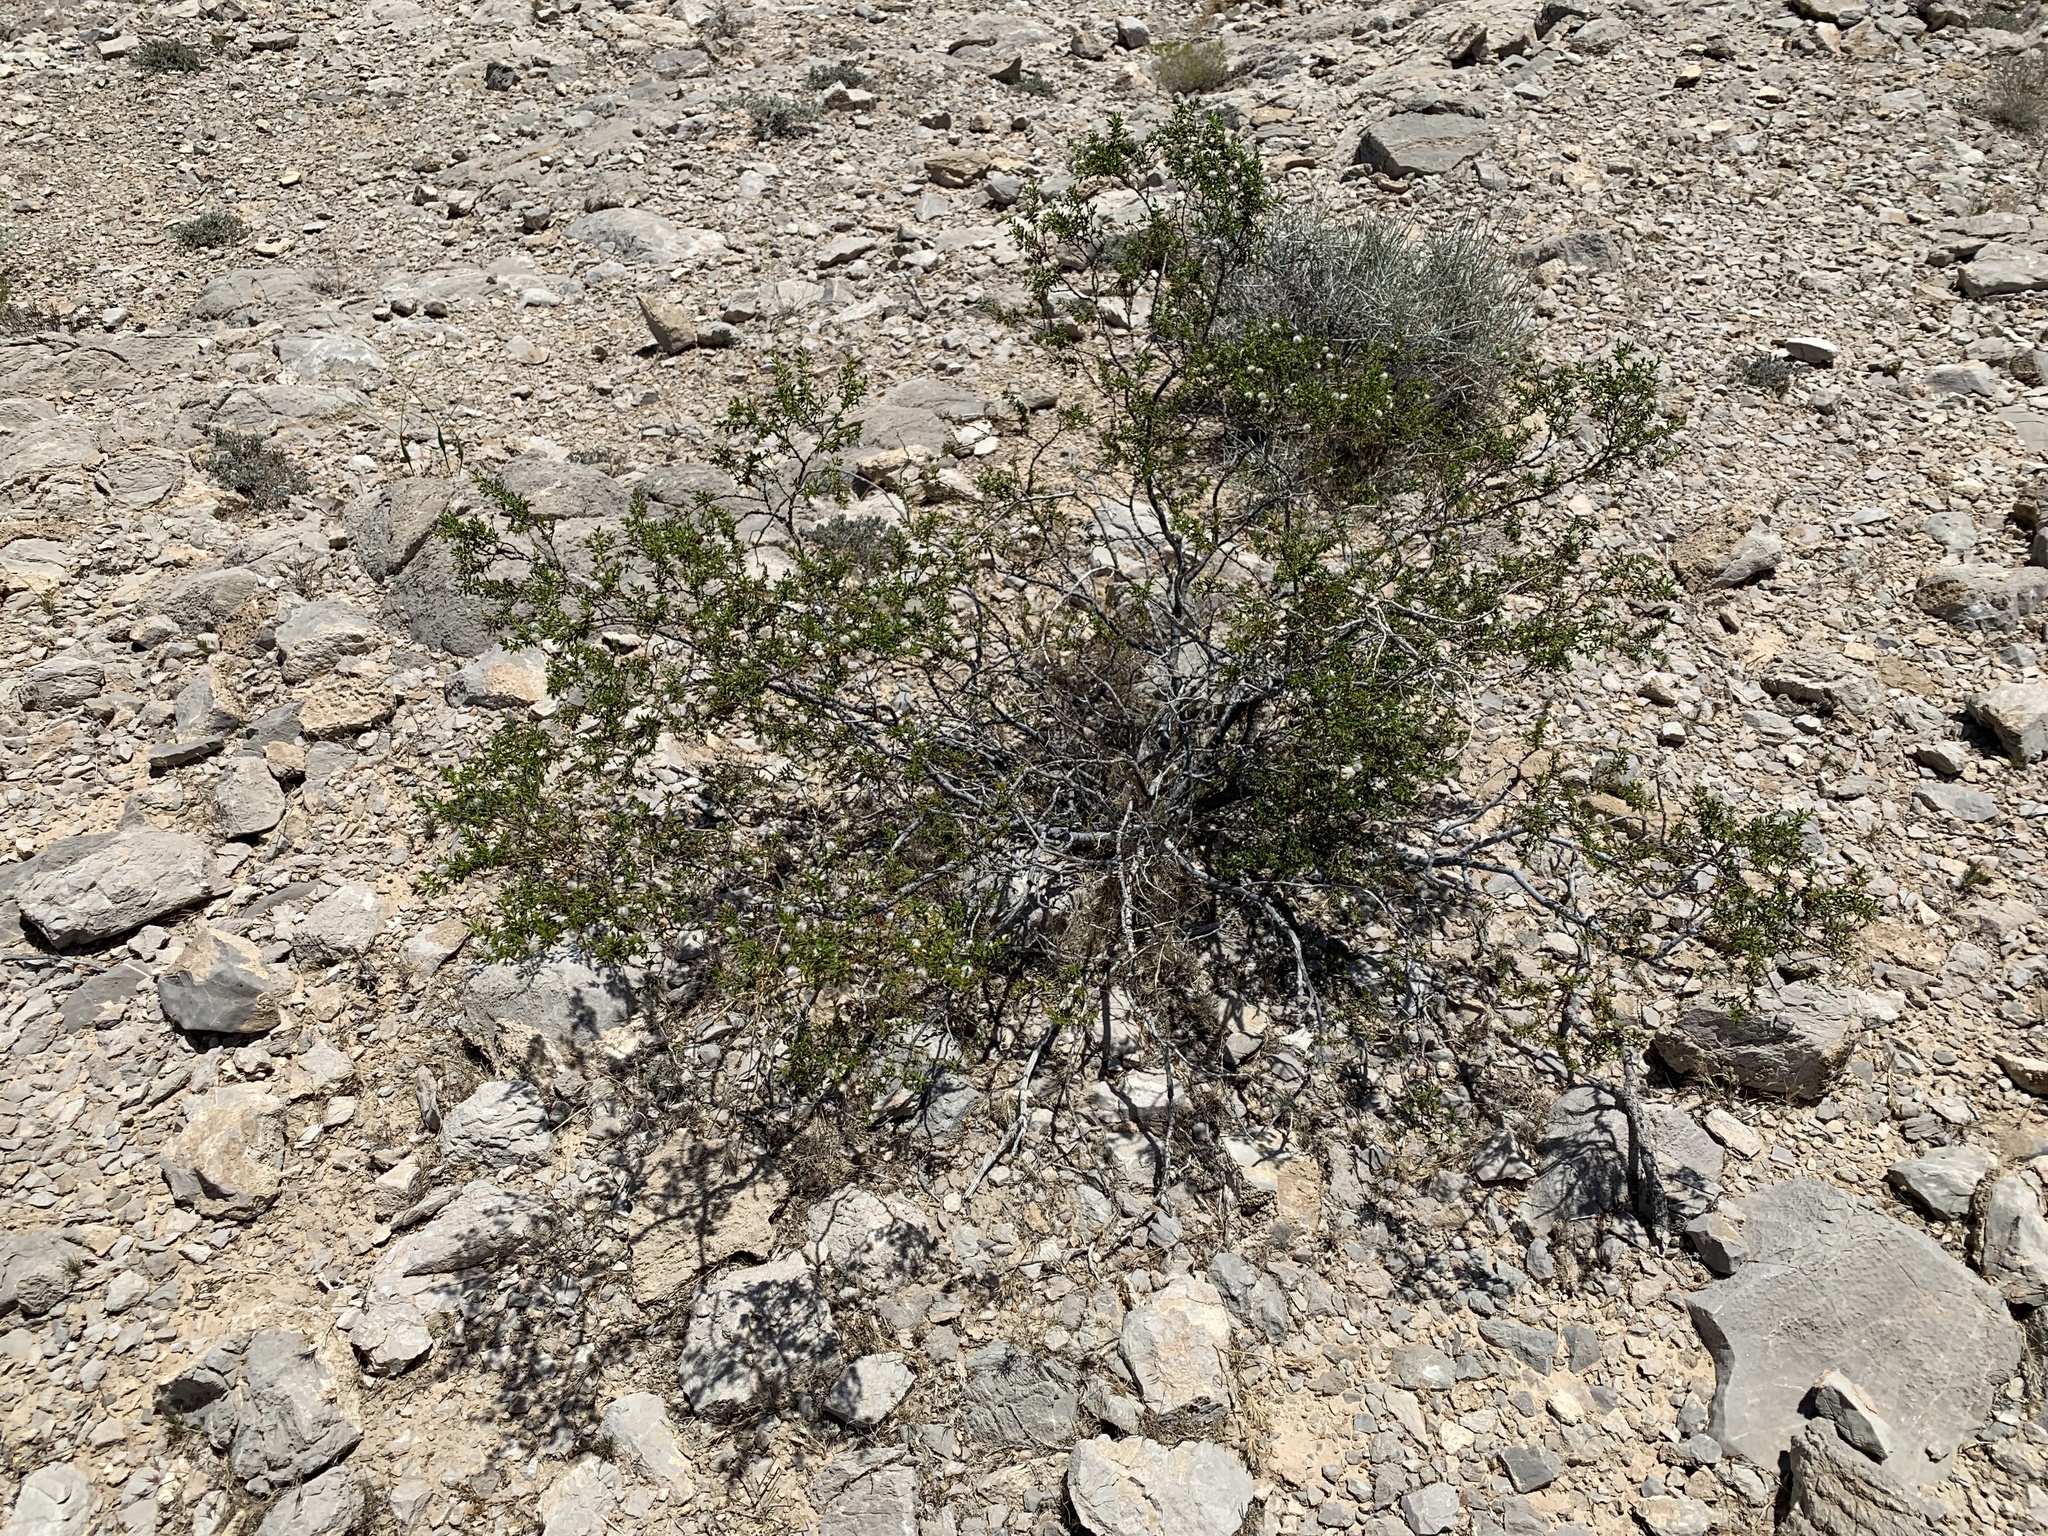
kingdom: Plantae
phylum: Tracheophyta
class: Magnoliopsida
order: Zygophyllales
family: Zygophyllaceae
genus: Larrea
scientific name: Larrea tridentata
